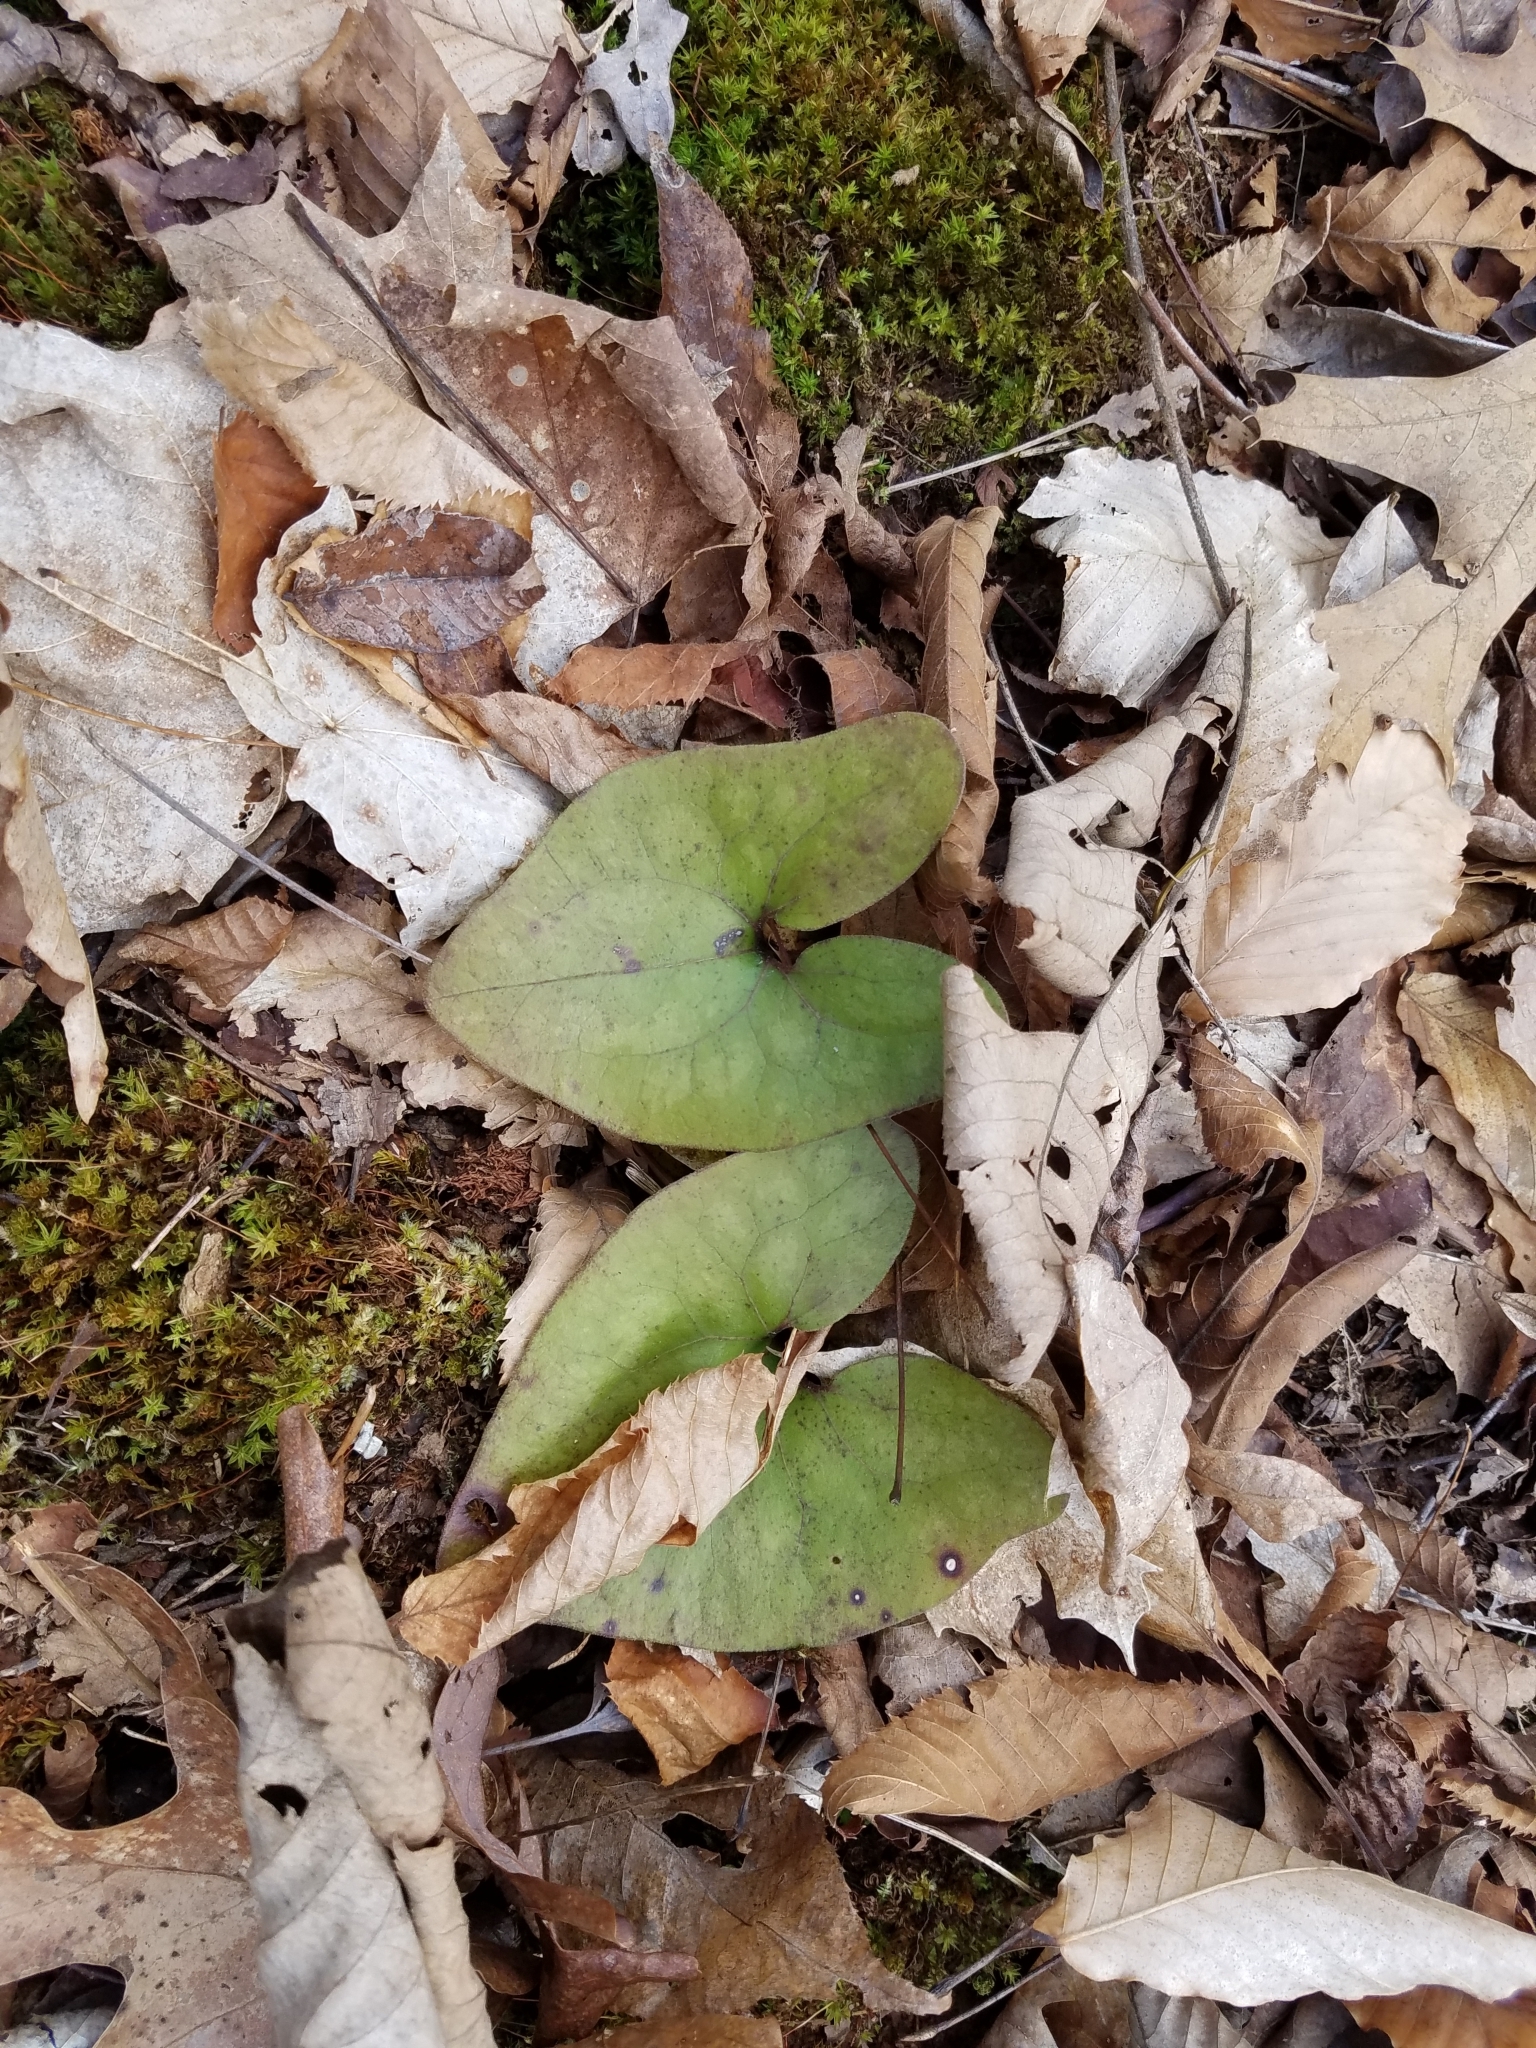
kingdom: Plantae
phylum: Tracheophyta
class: Magnoliopsida
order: Piperales
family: Aristolochiaceae
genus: Hexastylis
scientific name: Hexastylis arifolia
